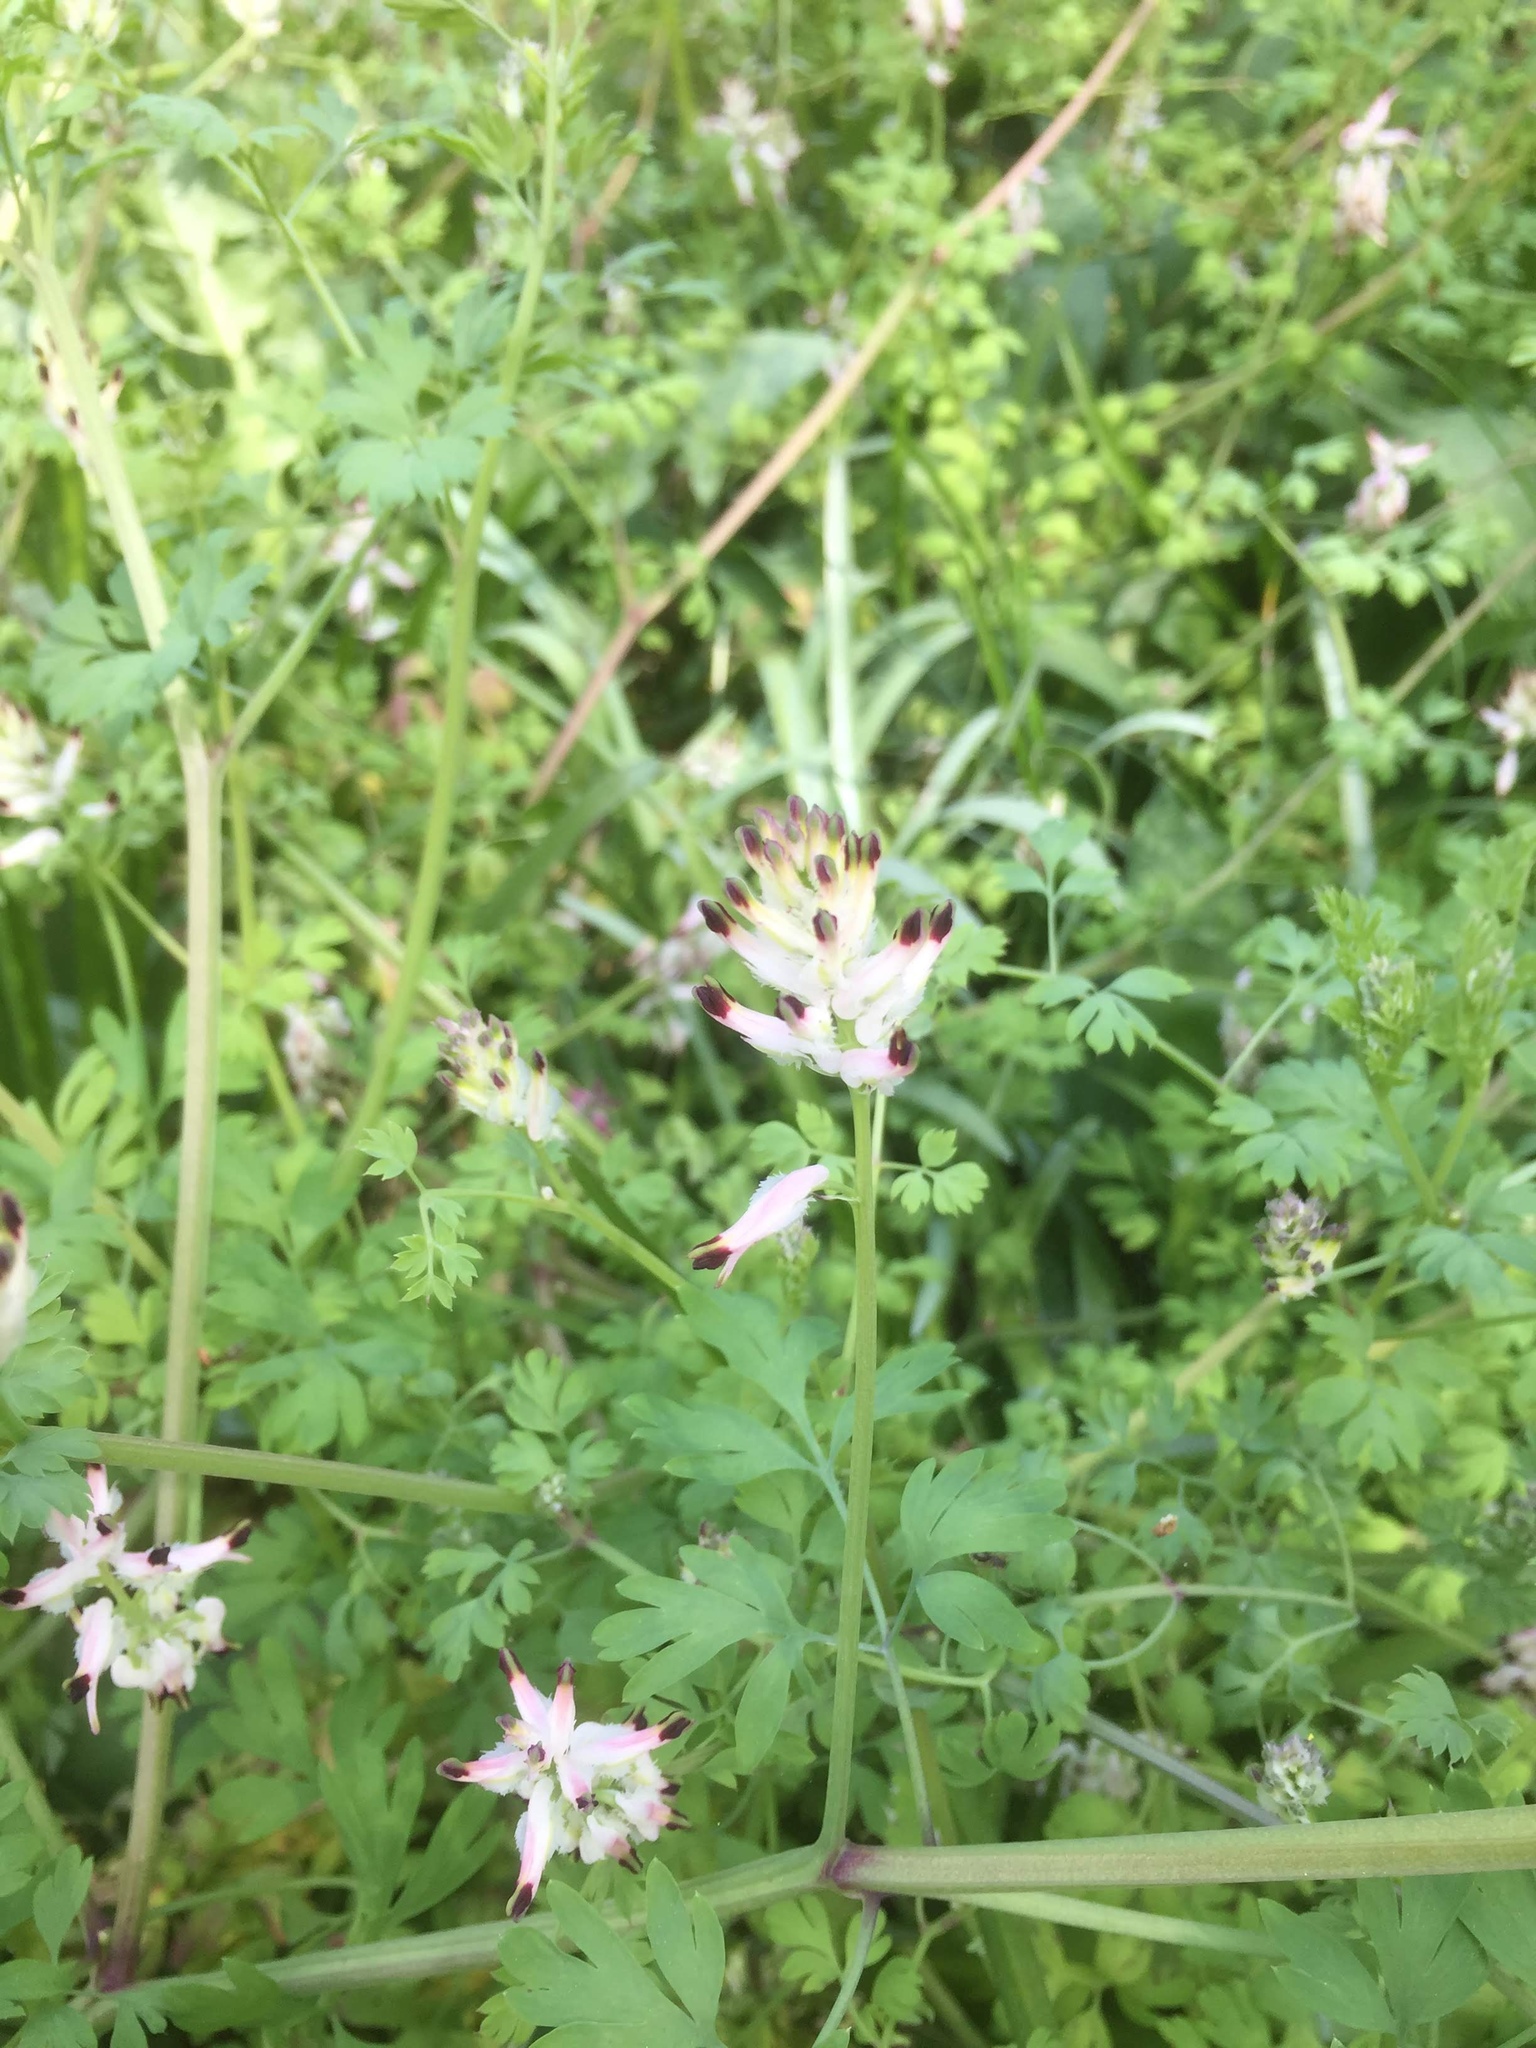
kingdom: Plantae
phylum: Tracheophyta
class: Magnoliopsida
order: Ranunculales
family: Papaveraceae
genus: Fumaria
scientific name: Fumaria capreolata
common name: White ramping-fumitory
